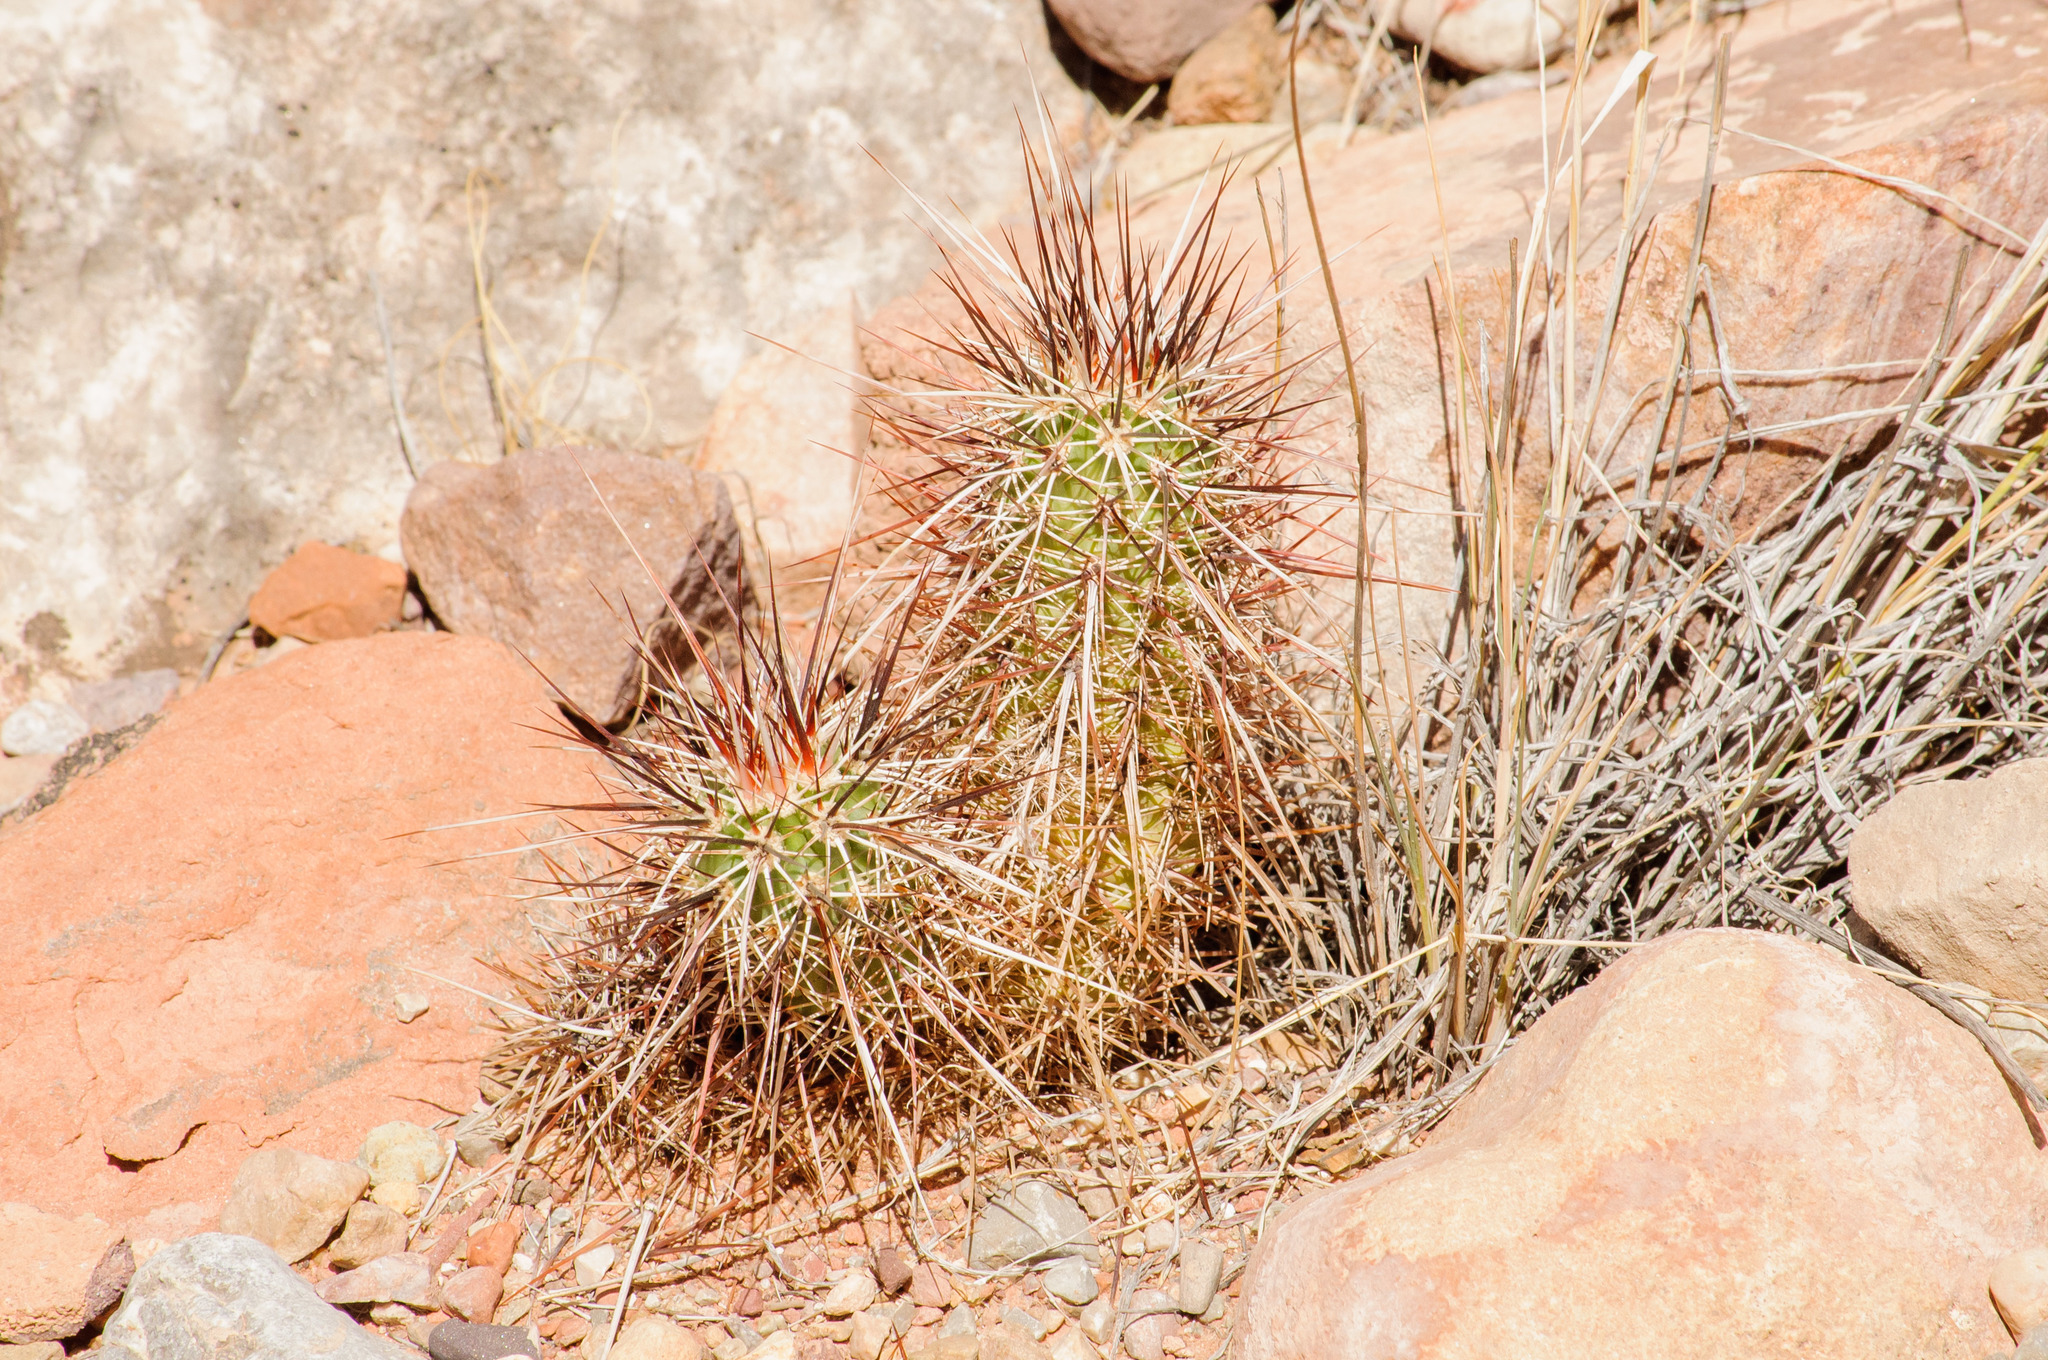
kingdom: Plantae
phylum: Tracheophyta
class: Magnoliopsida
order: Caryophyllales
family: Cactaceae
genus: Echinocereus
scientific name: Echinocereus engelmannii
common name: Engelmann's hedgehog cactus
